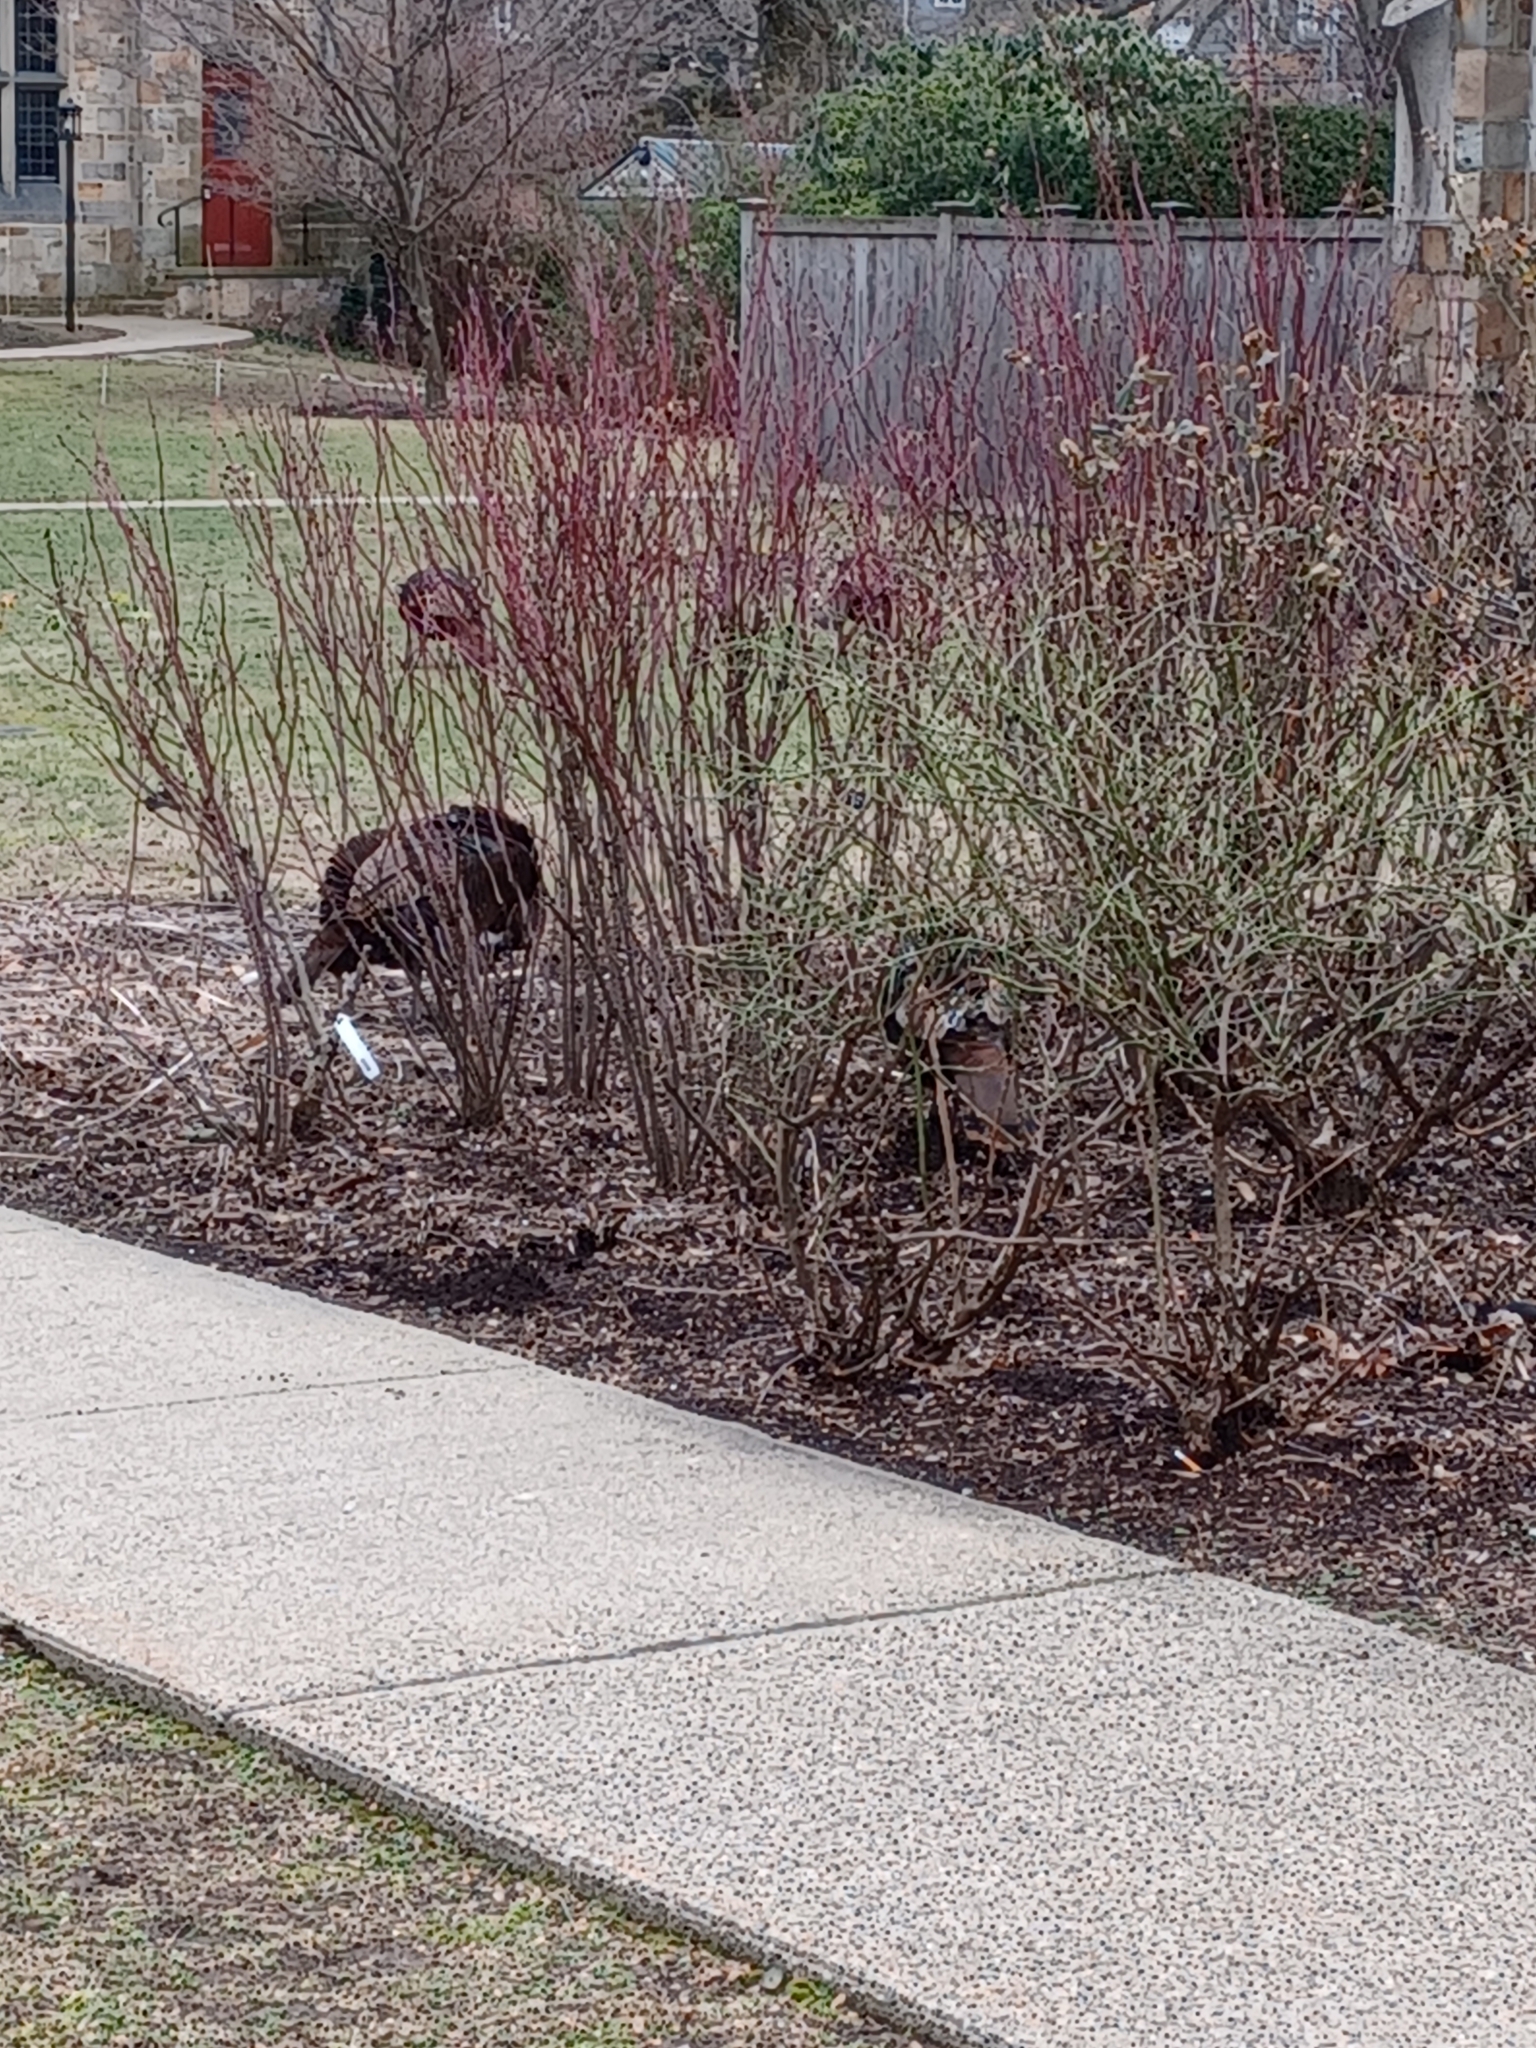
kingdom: Animalia
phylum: Chordata
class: Aves
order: Galliformes
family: Phasianidae
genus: Meleagris
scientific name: Meleagris gallopavo
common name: Wild turkey
